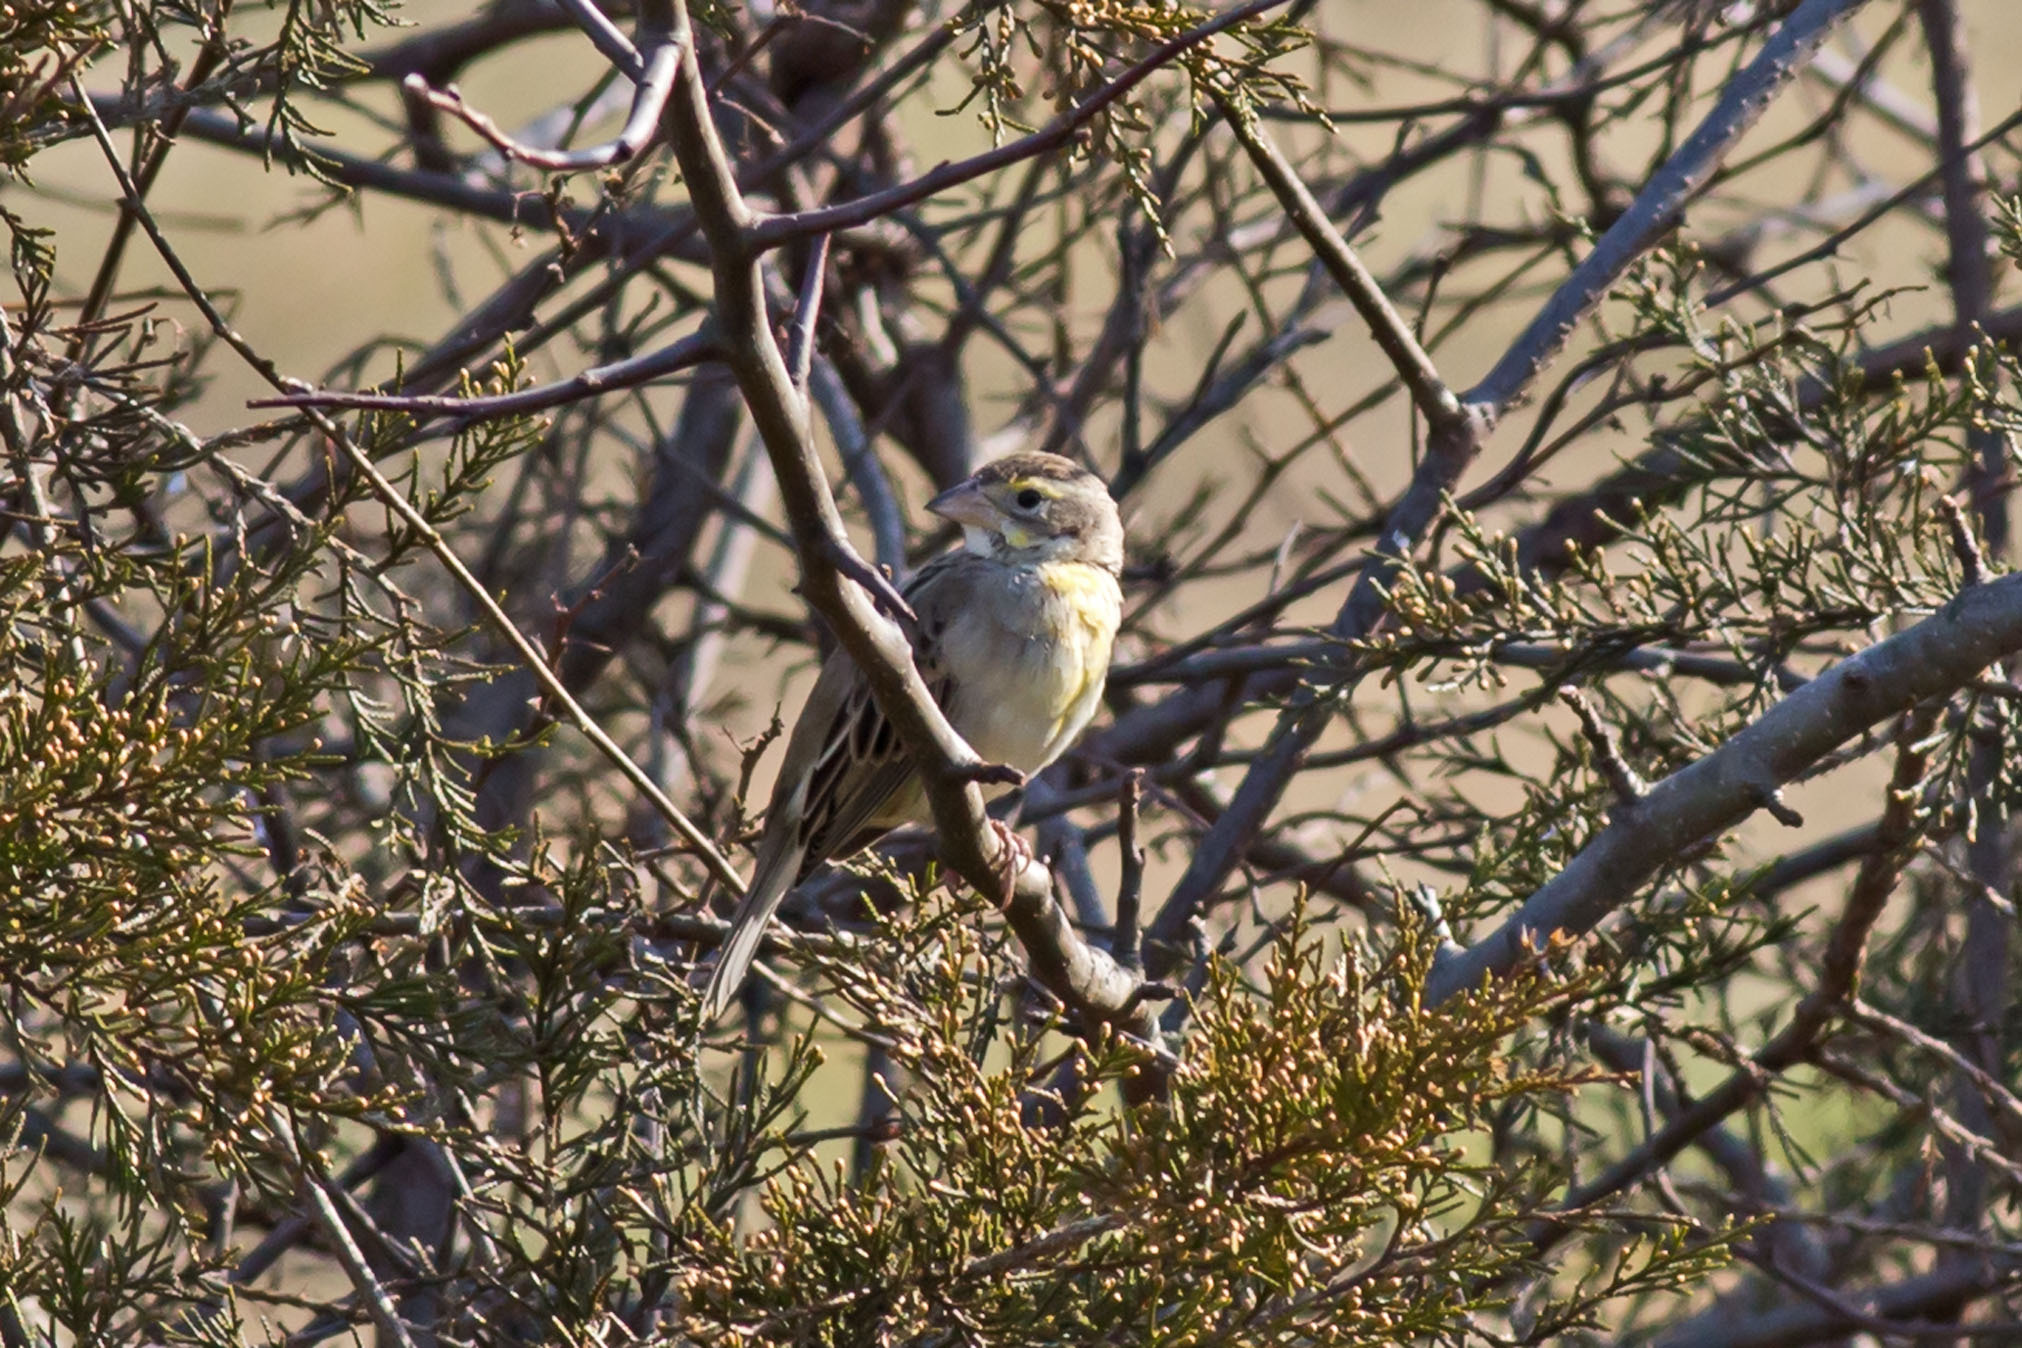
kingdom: Animalia
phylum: Chordata
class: Aves
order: Passeriformes
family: Cardinalidae
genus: Spiza
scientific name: Spiza americana
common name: Dickcissel
